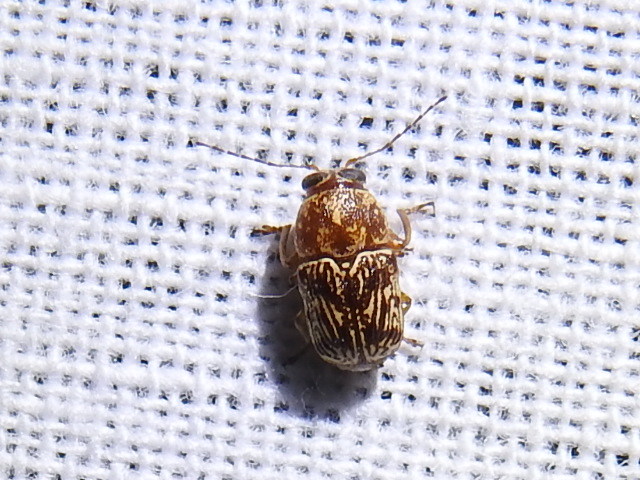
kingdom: Animalia
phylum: Arthropoda
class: Insecta
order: Coleoptera
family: Chrysomelidae
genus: Pachybrachis
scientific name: Pachybrachis
